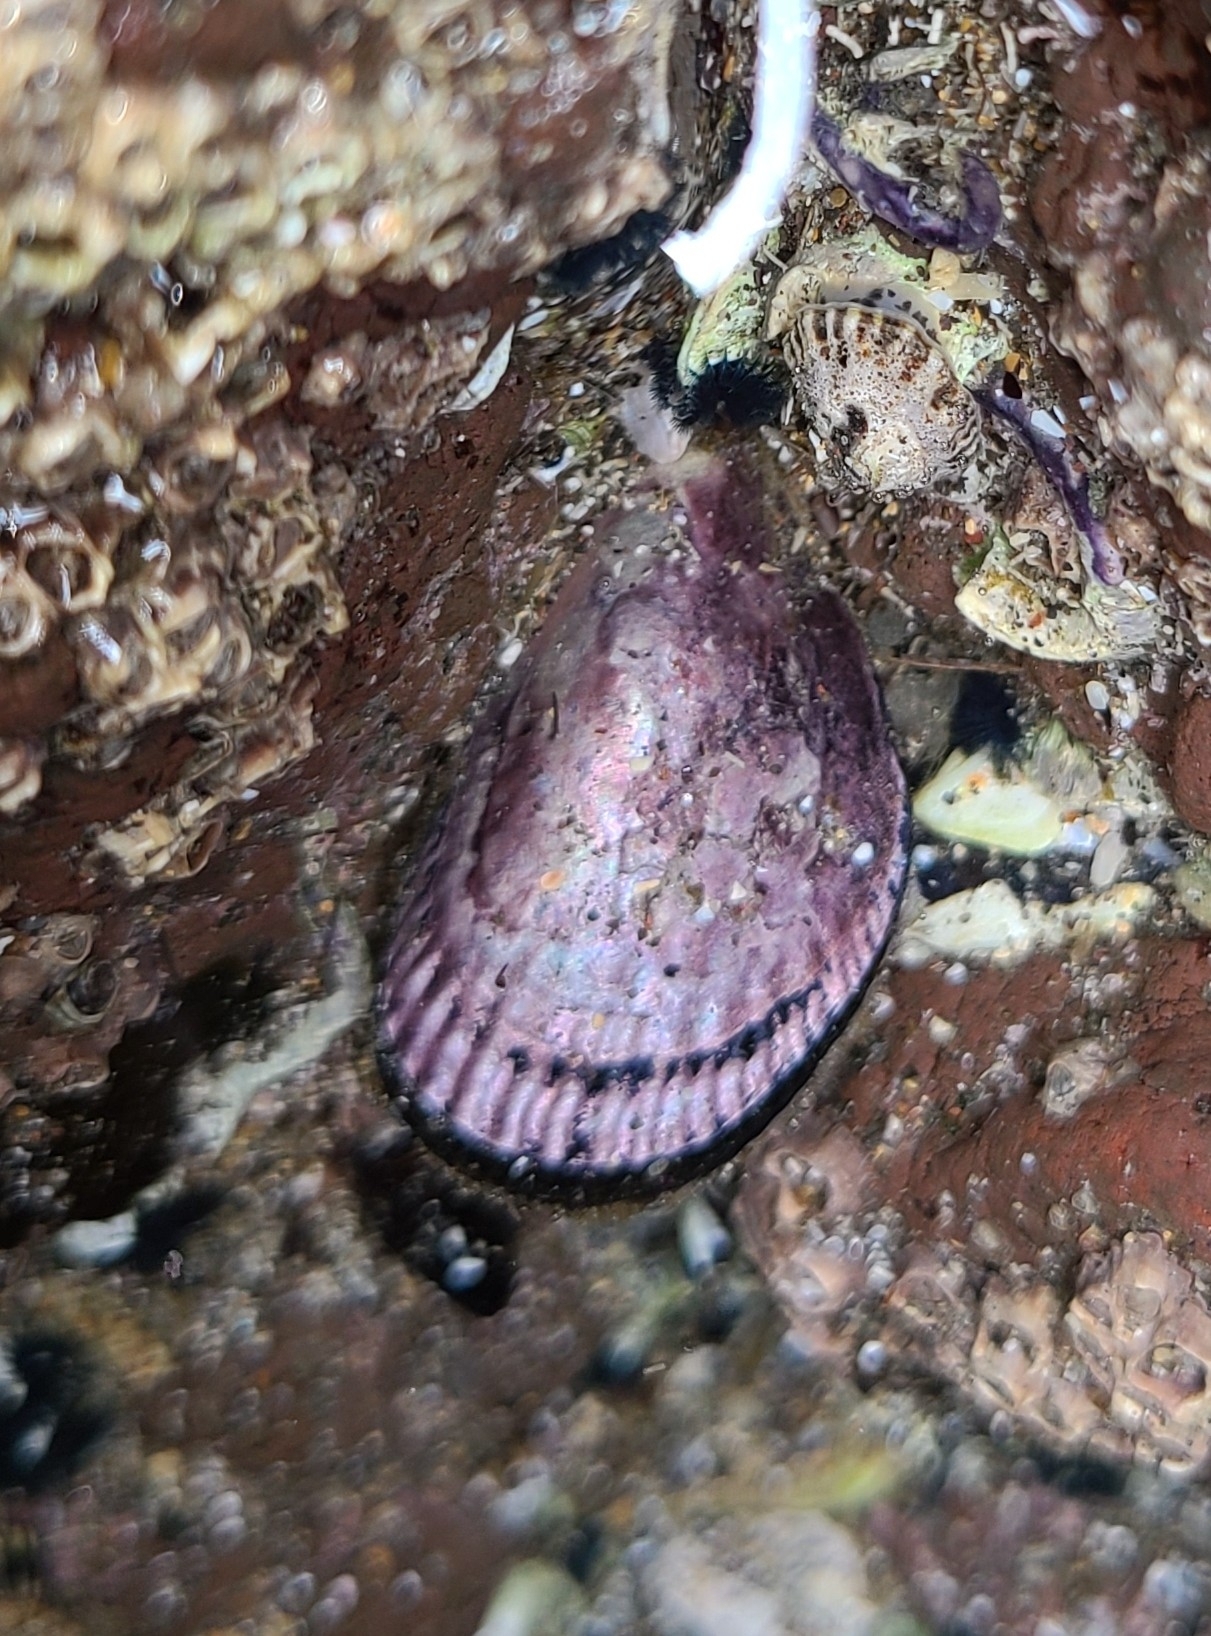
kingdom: Animalia
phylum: Mollusca
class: Bivalvia
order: Mytilida
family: Mytilidae
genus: Aulacomya
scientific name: Aulacomya maoriana
